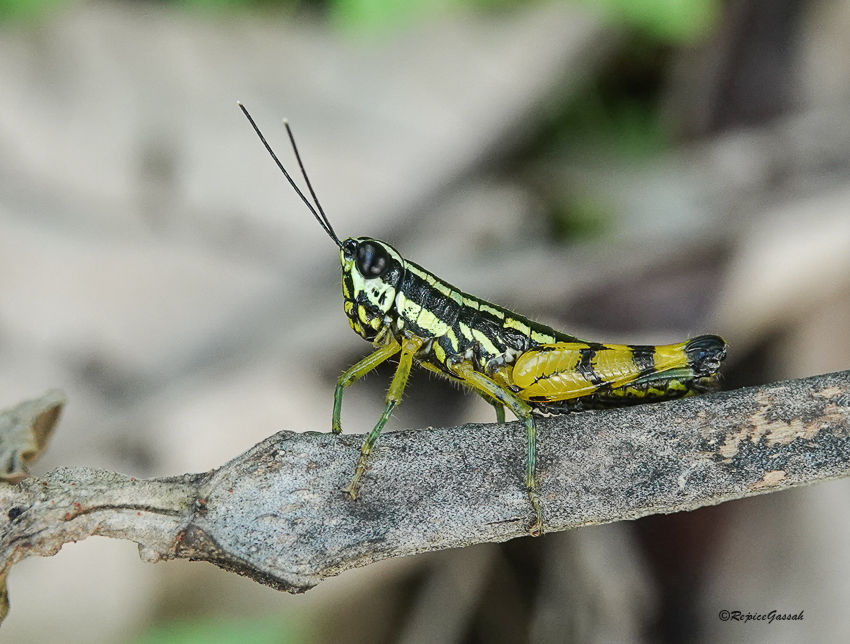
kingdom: Animalia
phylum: Arthropoda
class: Insecta
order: Orthoptera
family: Acrididae
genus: Genimen
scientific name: Genimen amarpur
